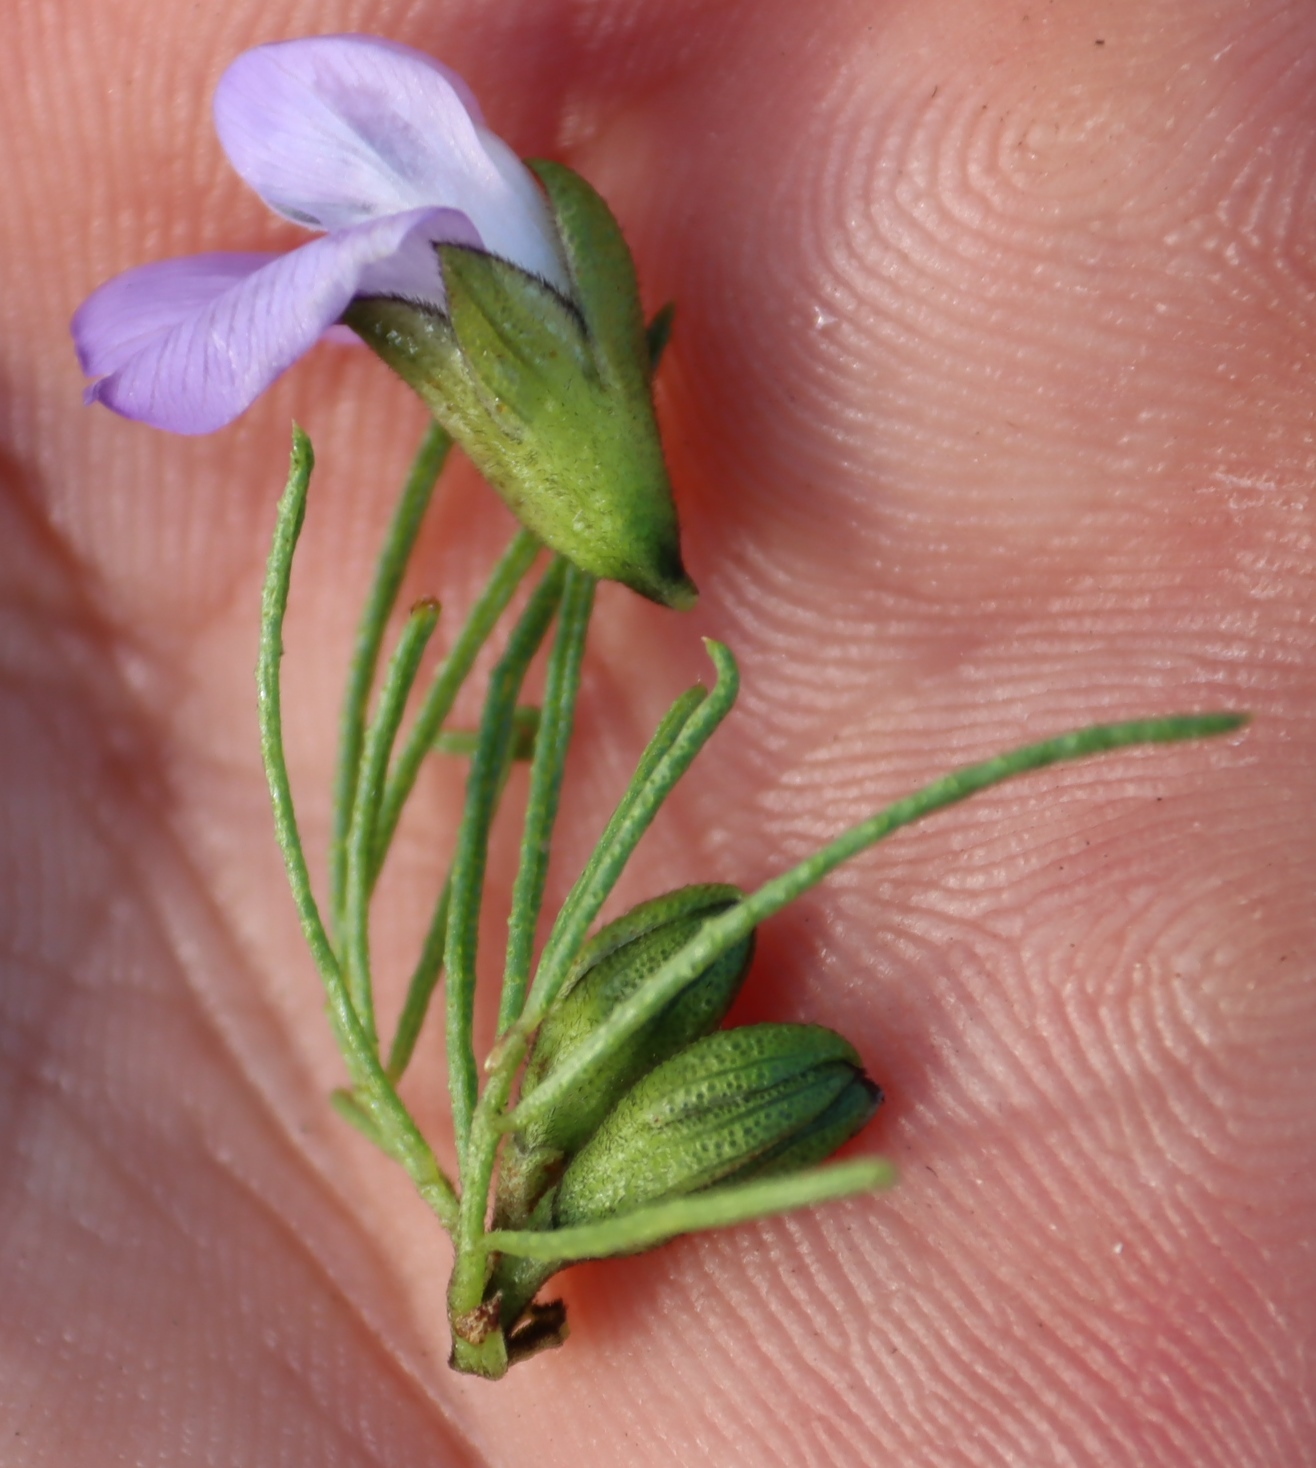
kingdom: Plantae
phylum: Tracheophyta
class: Magnoliopsida
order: Fabales
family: Fabaceae
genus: Psoralea
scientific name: Psoralea muirii
